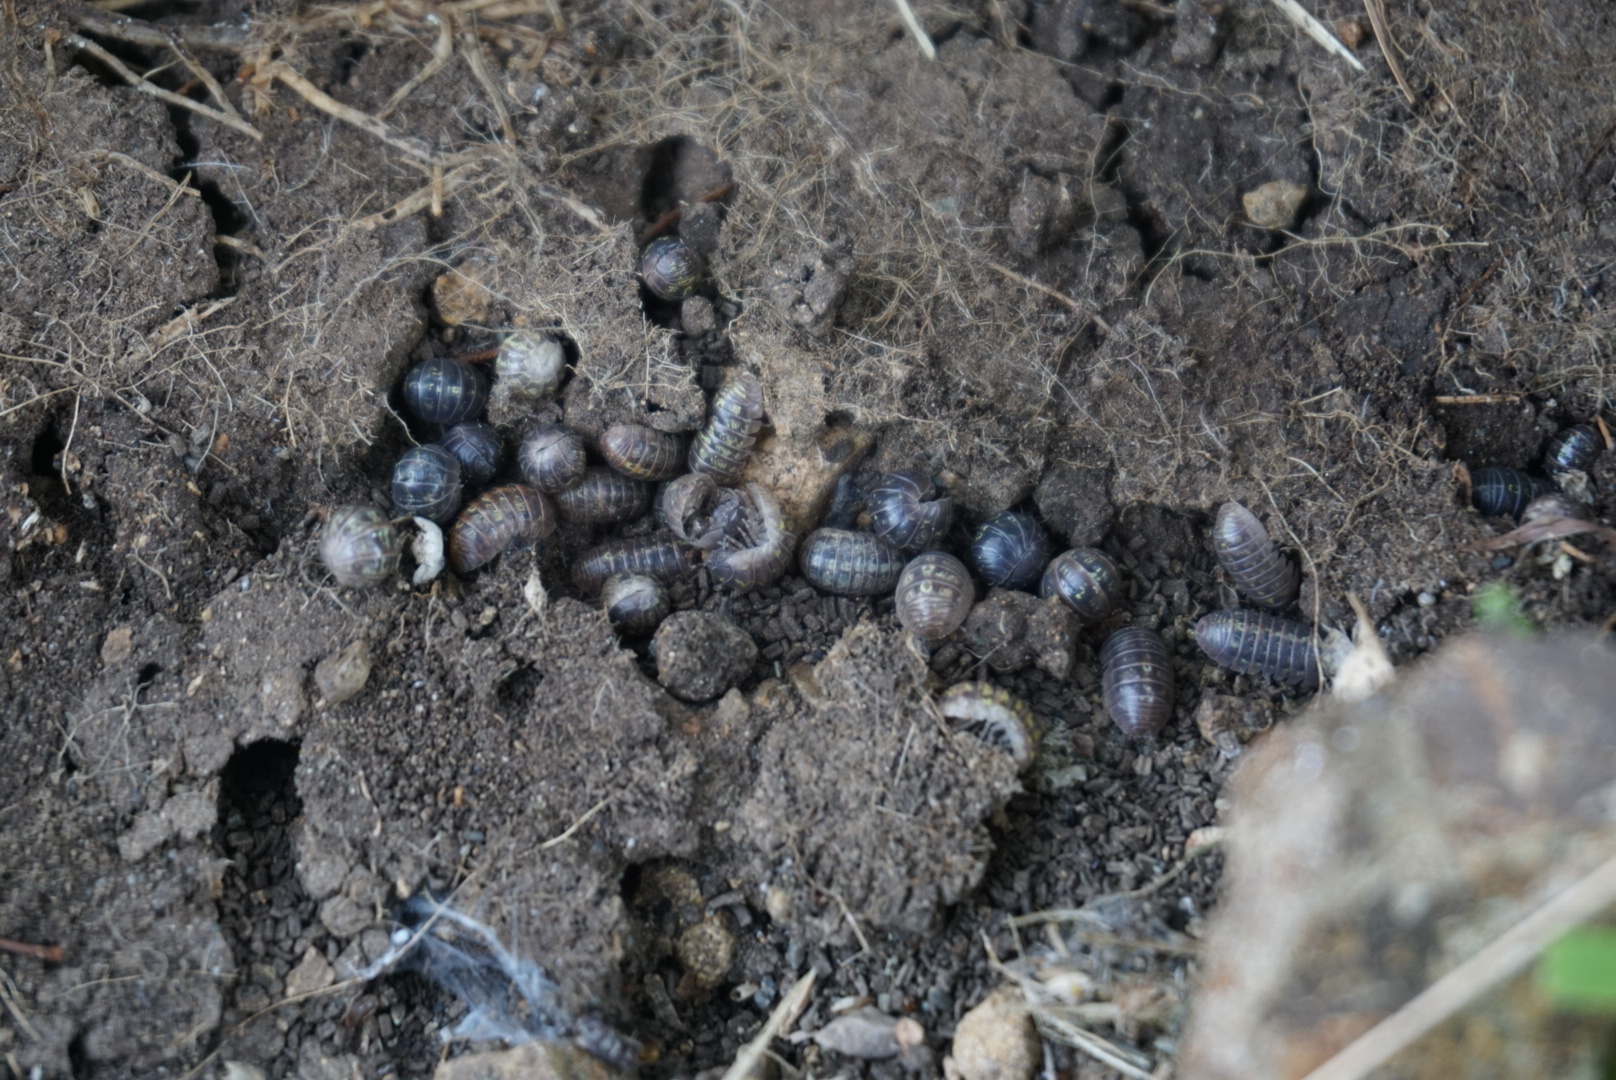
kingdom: Animalia
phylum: Arthropoda
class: Malacostraca
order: Isopoda
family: Armadillidiidae
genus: Armadillidium
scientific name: Armadillidium vulgare
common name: Common pill woodlouse
